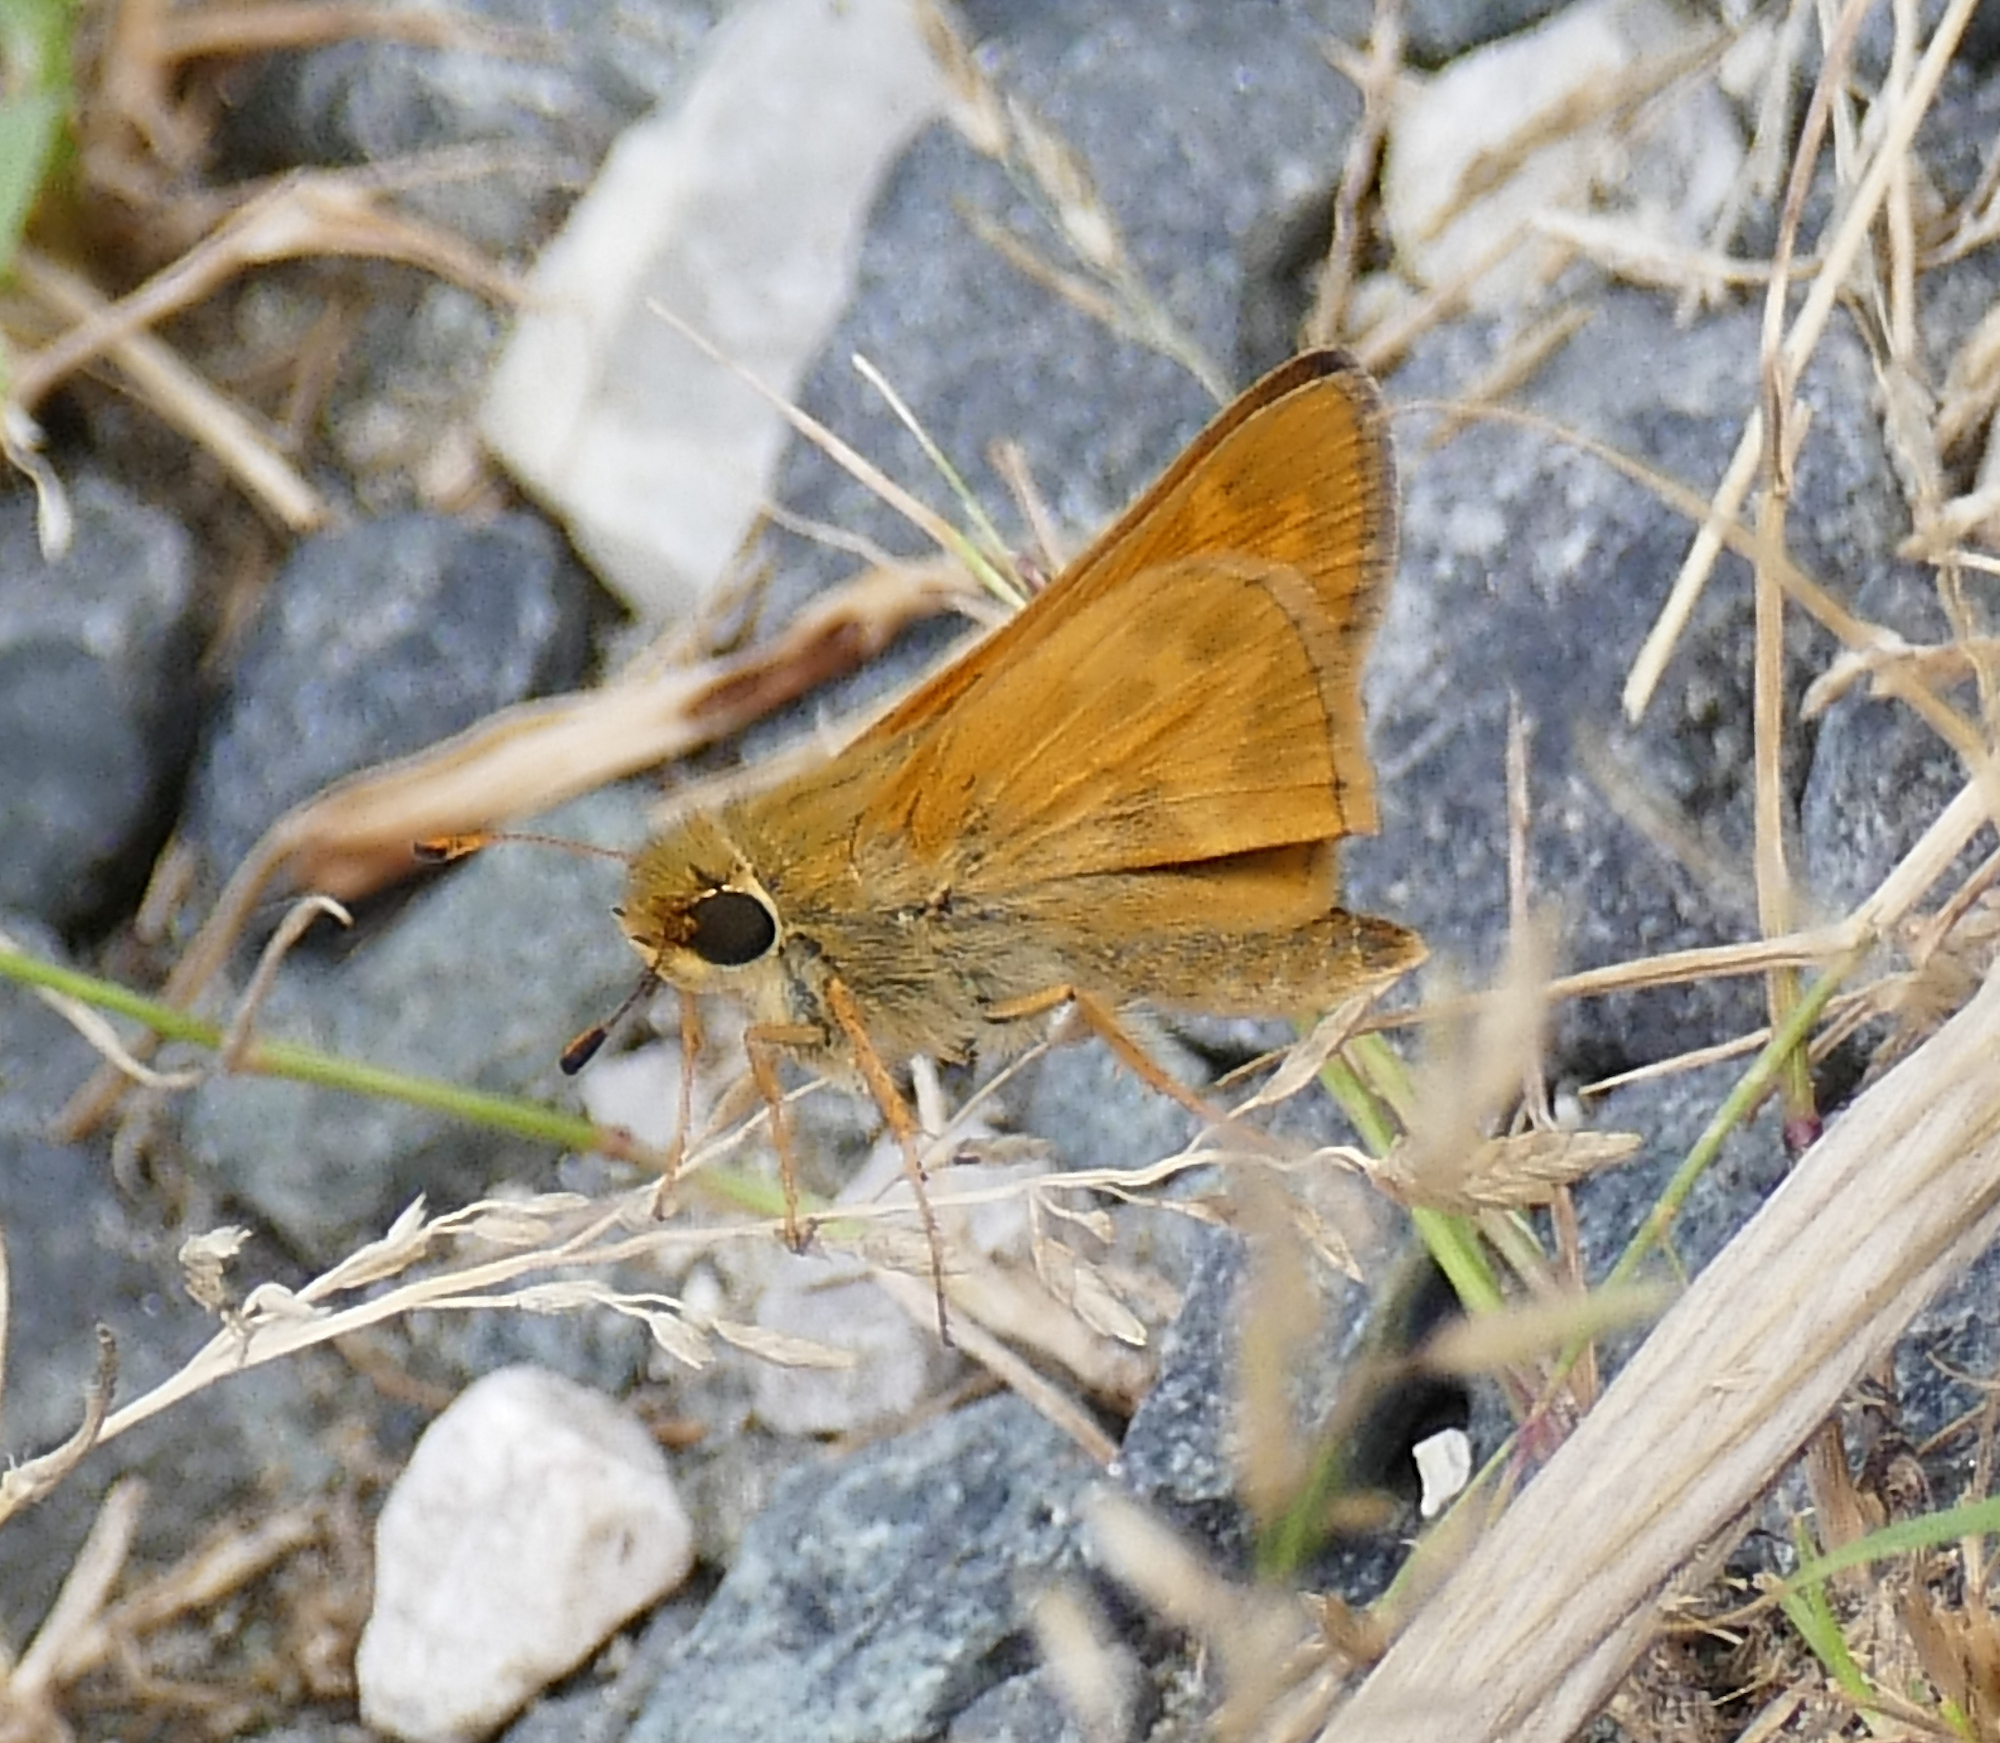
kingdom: Animalia
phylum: Arthropoda
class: Insecta
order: Lepidoptera
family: Hesperiidae
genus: Atalopedes
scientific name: Atalopedes
